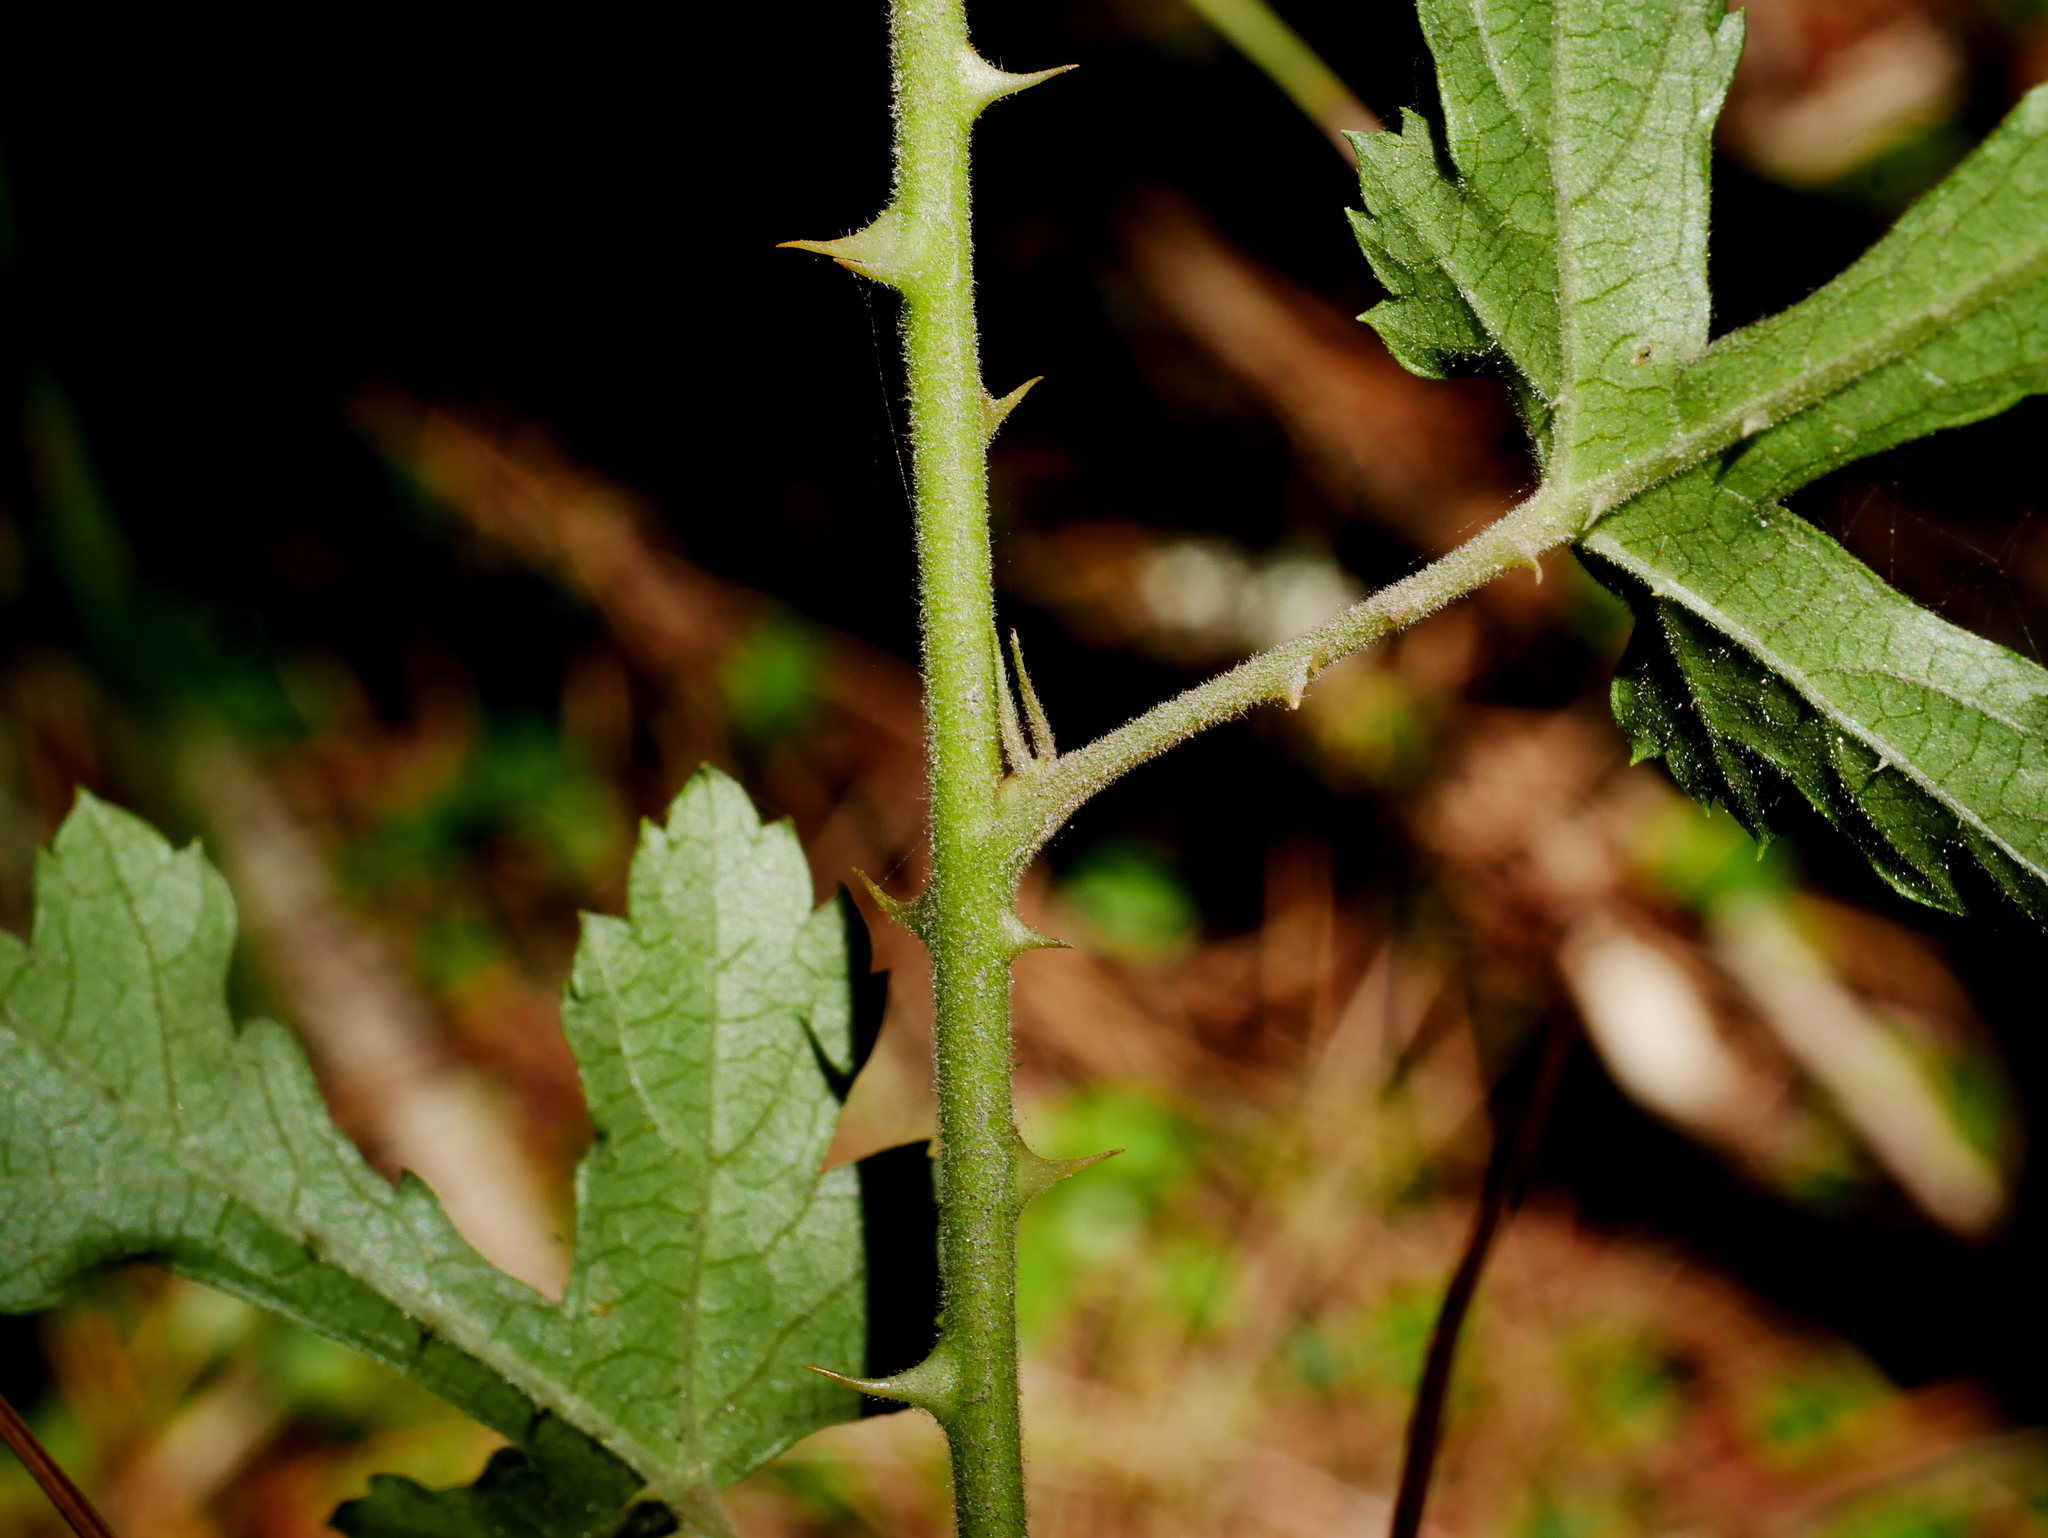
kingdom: Plantae
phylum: Tracheophyta
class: Magnoliopsida
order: Rosales
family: Rosaceae
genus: Rubus
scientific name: Rubus taitoensis
